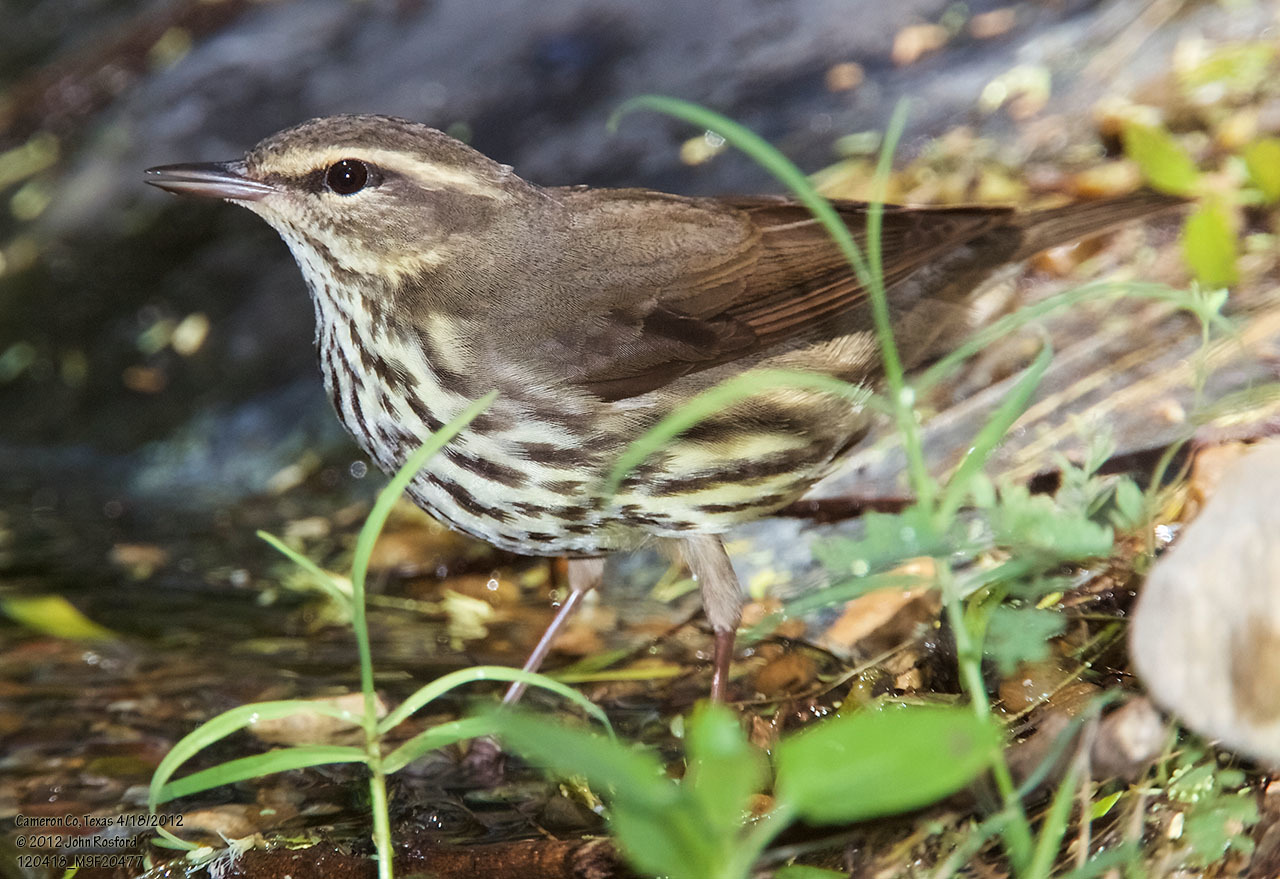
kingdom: Animalia
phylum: Chordata
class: Aves
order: Passeriformes
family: Parulidae
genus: Parkesia
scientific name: Parkesia noveboracensis
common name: Northern waterthrush
